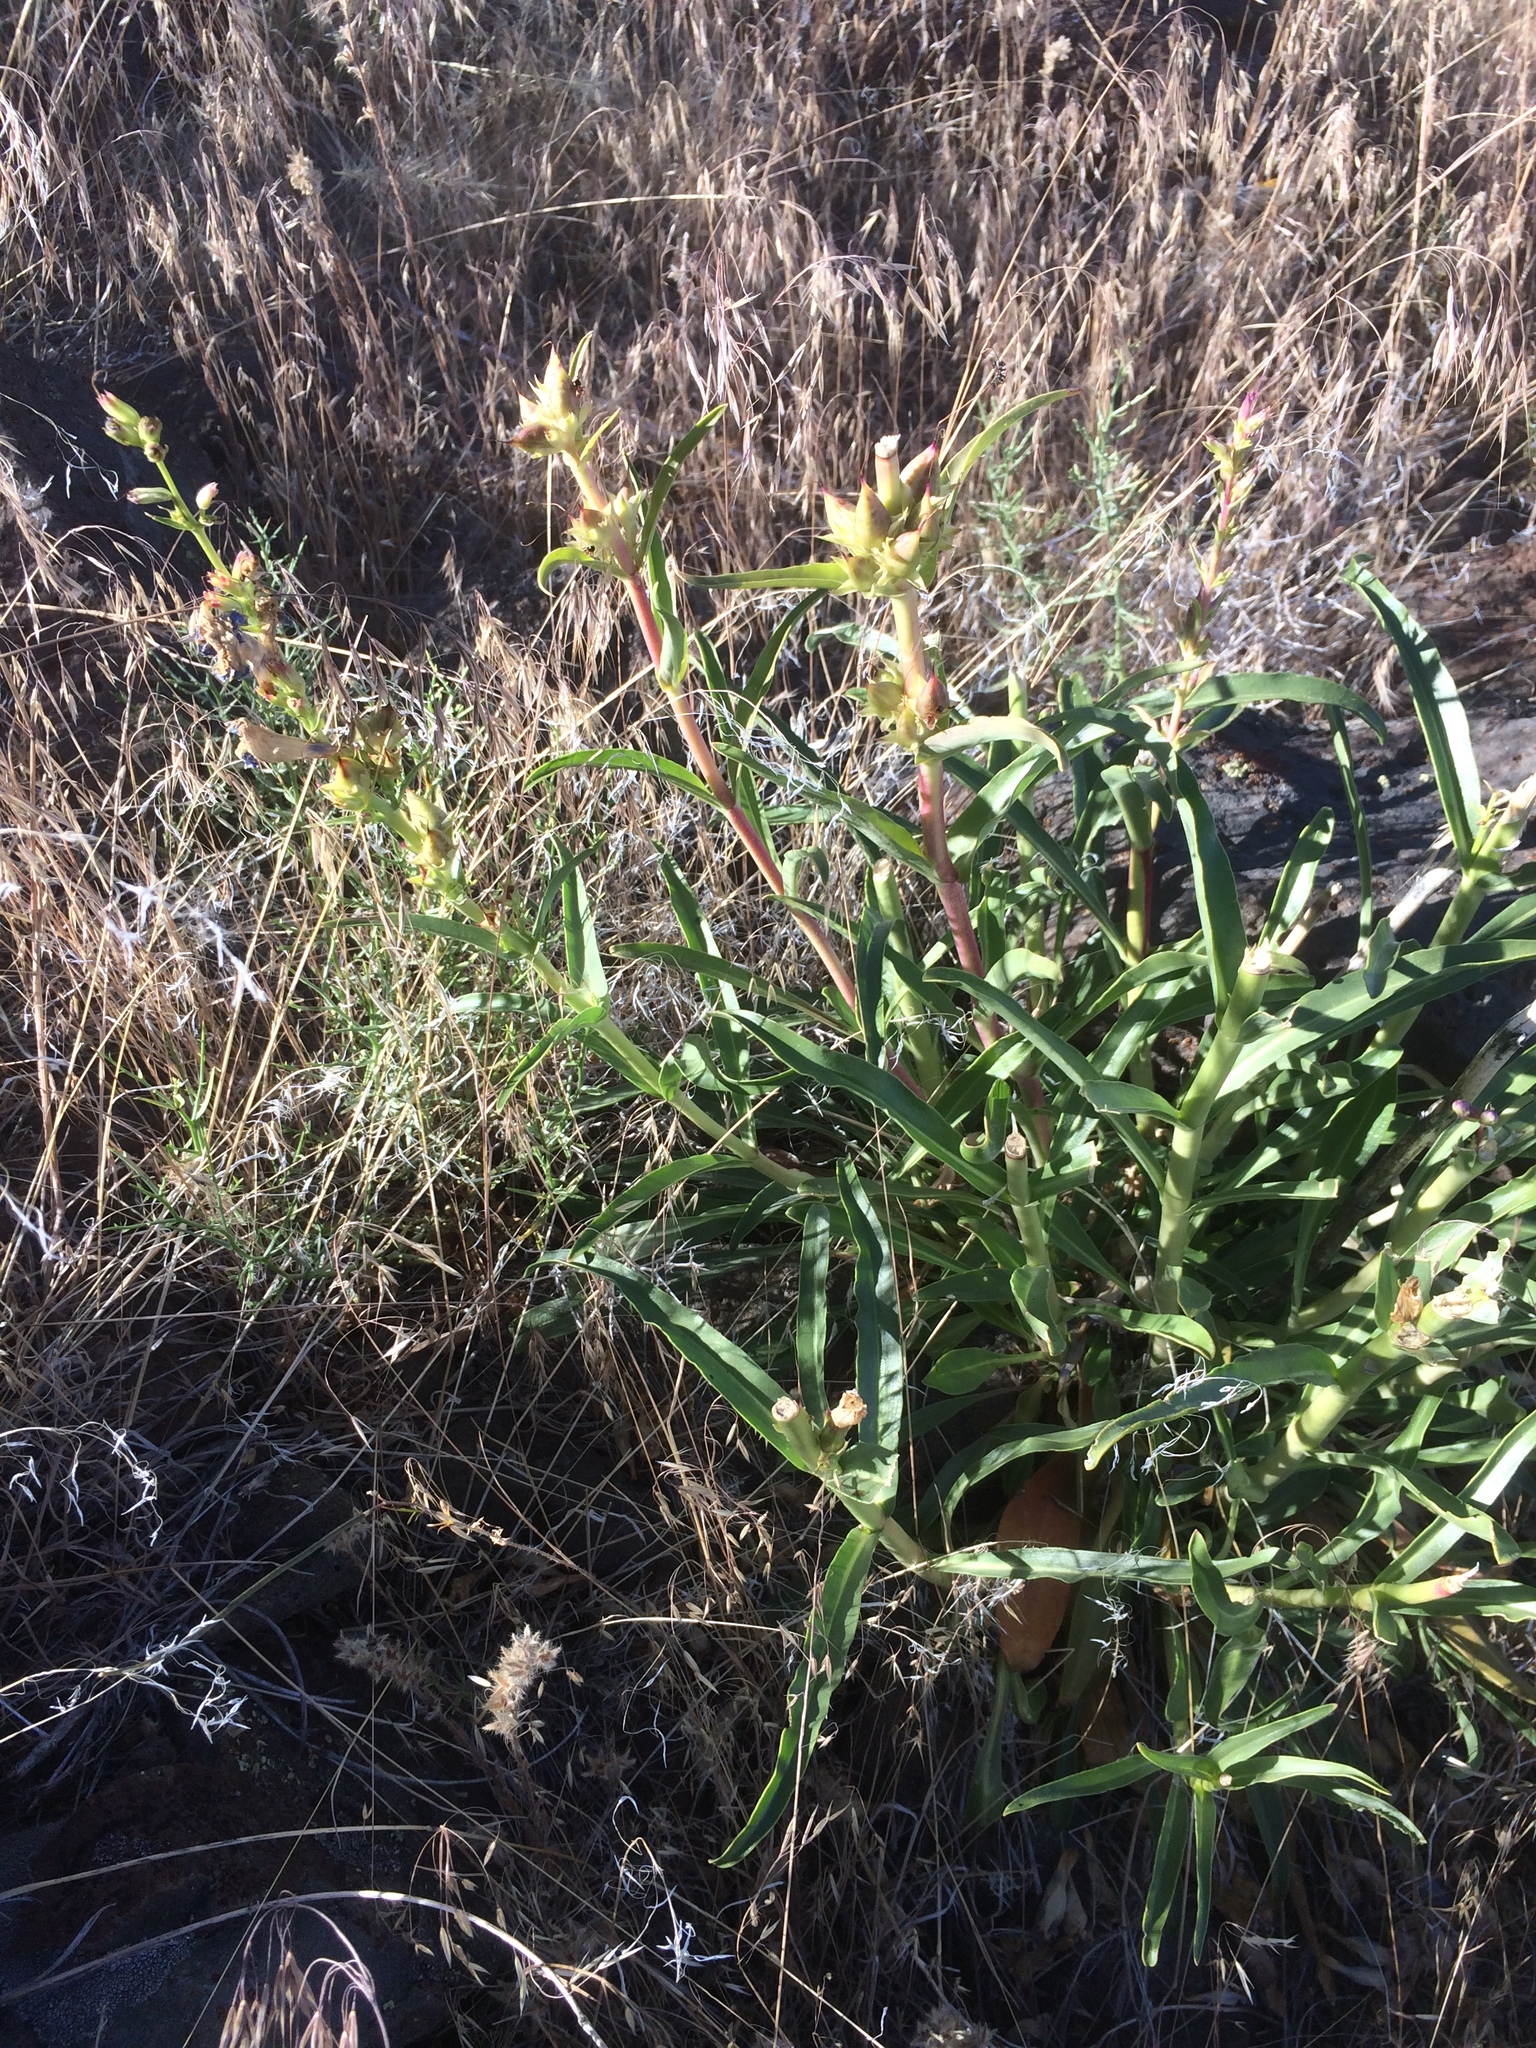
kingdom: Plantae
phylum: Tracheophyta
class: Magnoliopsida
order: Lamiales
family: Plantaginaceae
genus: Penstemon
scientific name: Penstemon speciosus
